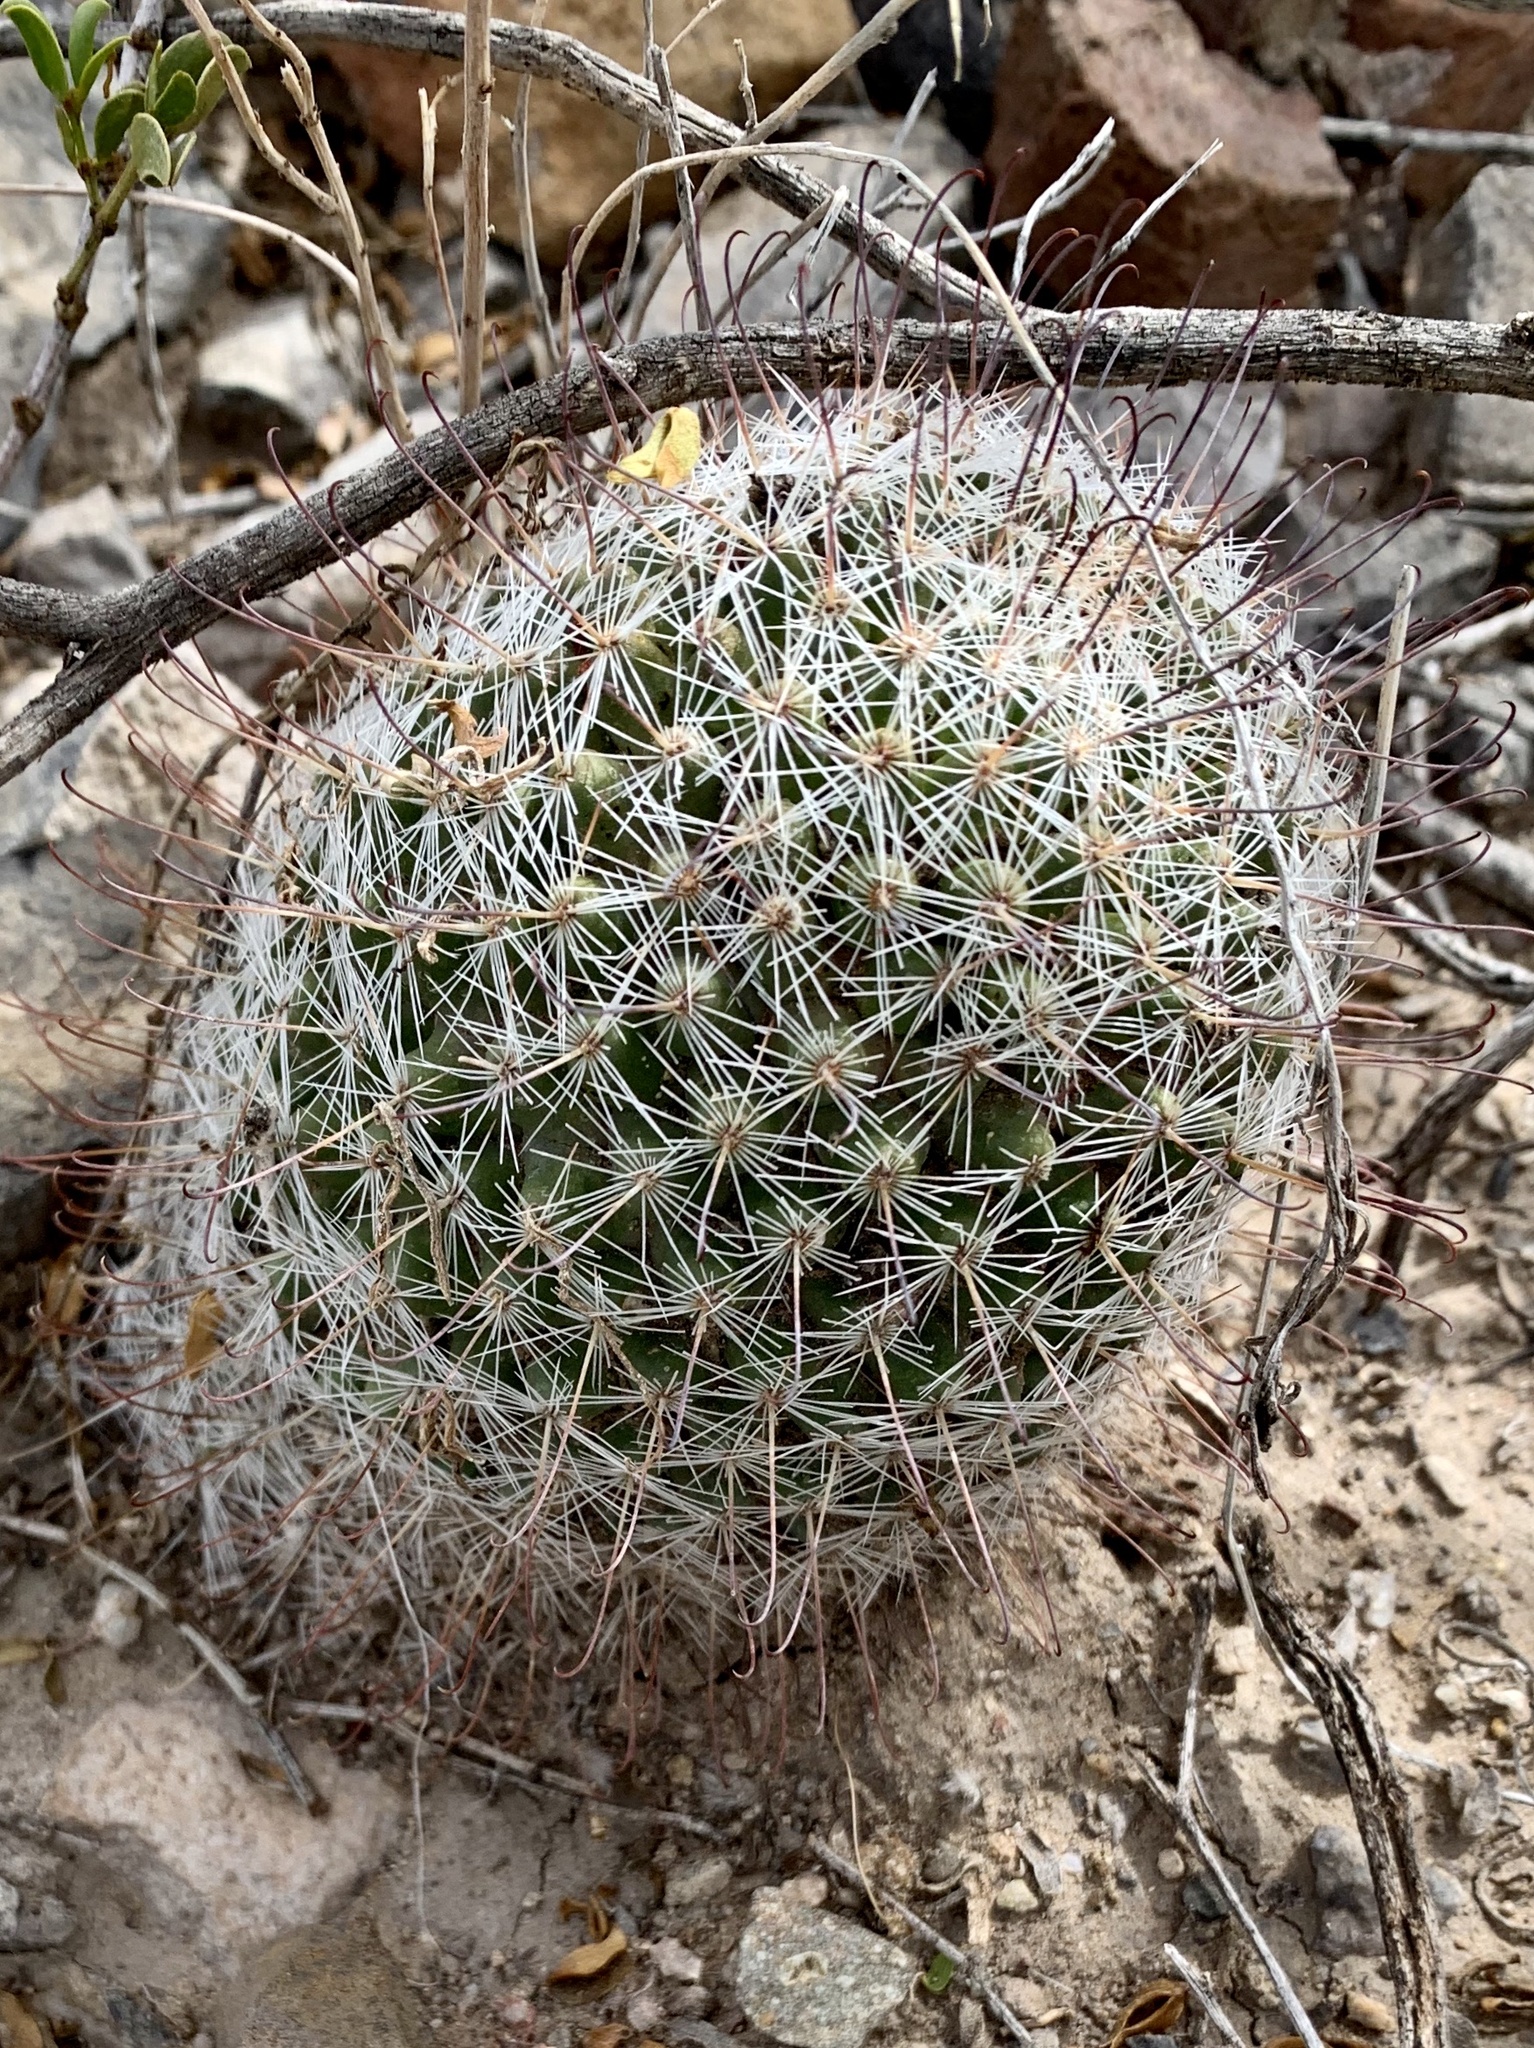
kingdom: Plantae
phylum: Tracheophyta
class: Magnoliopsida
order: Caryophyllales
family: Cactaceae
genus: Cochemiea
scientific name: Cochemiea grahamii
